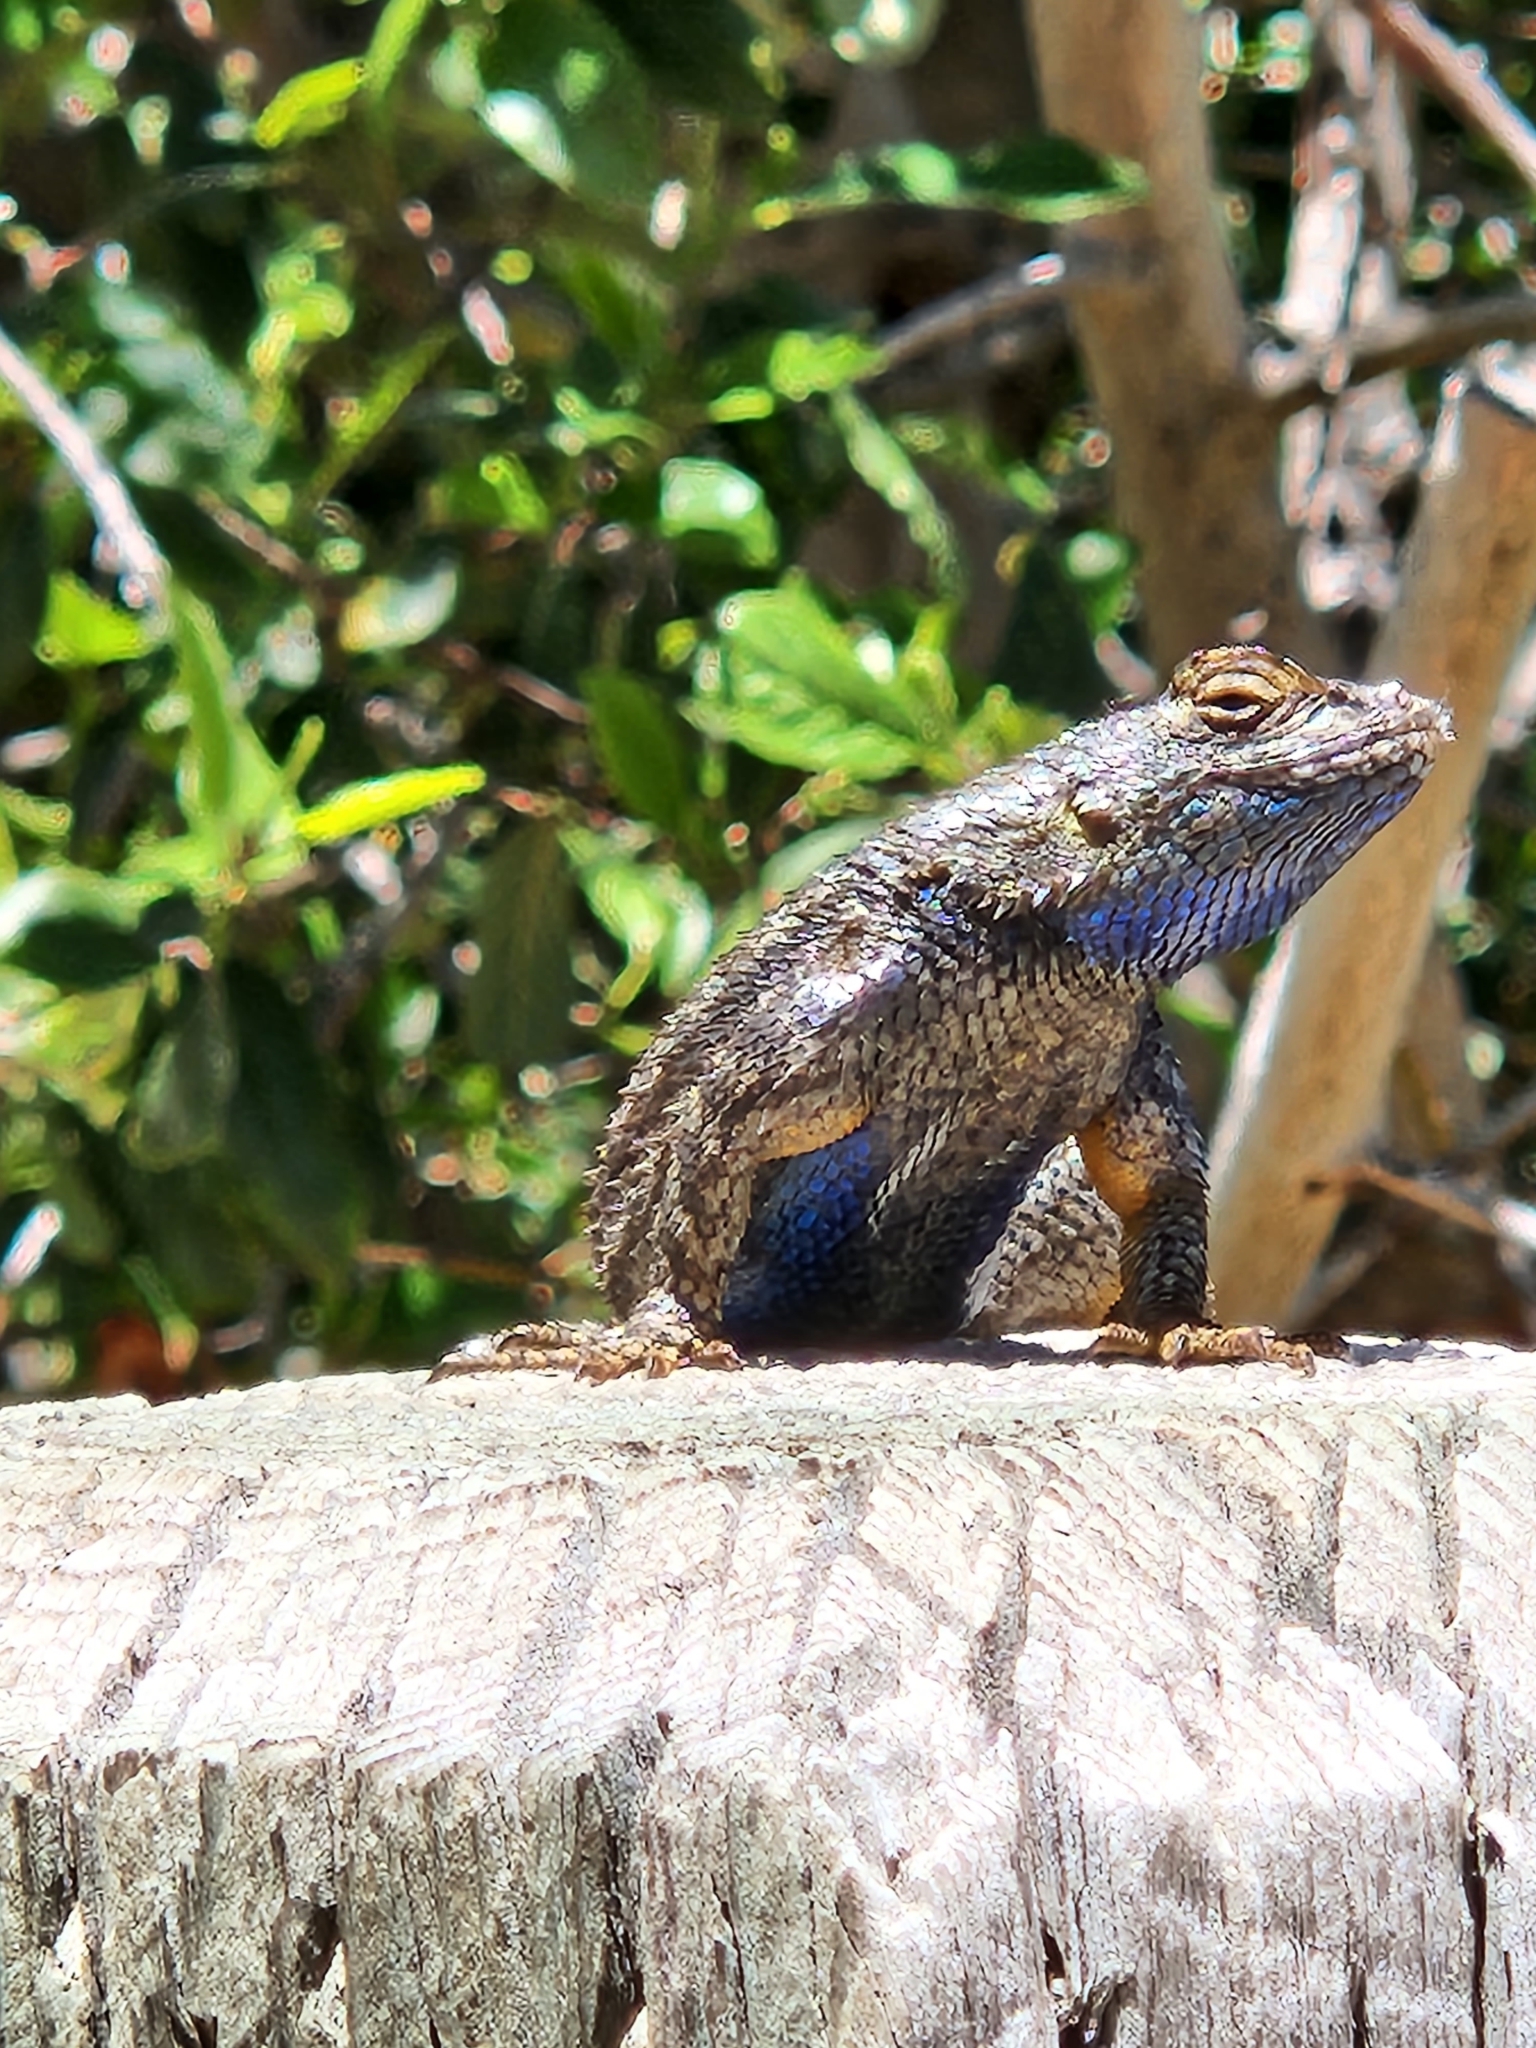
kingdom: Animalia
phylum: Chordata
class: Squamata
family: Phrynosomatidae
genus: Sceloporus
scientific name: Sceloporus occidentalis
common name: Western fence lizard
